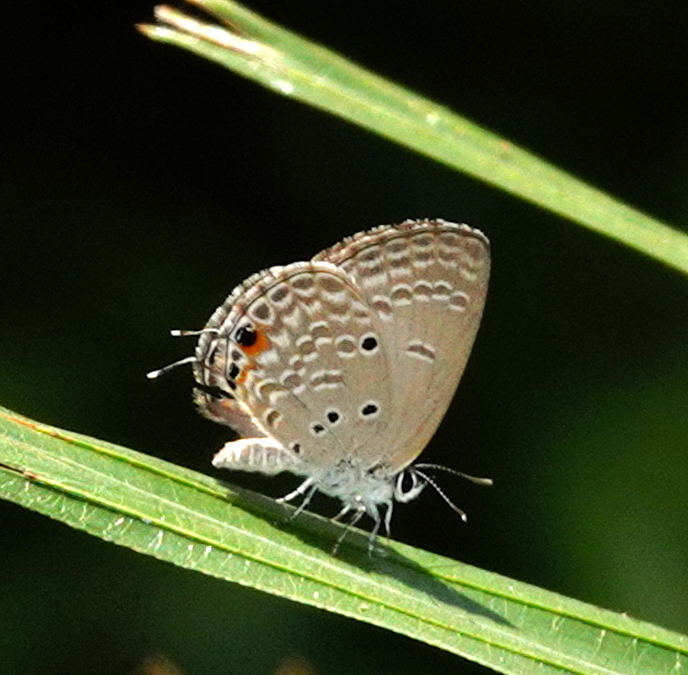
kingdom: Animalia
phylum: Arthropoda
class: Insecta
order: Lepidoptera
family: Lycaenidae
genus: Luthrodes
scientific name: Luthrodes pandava
